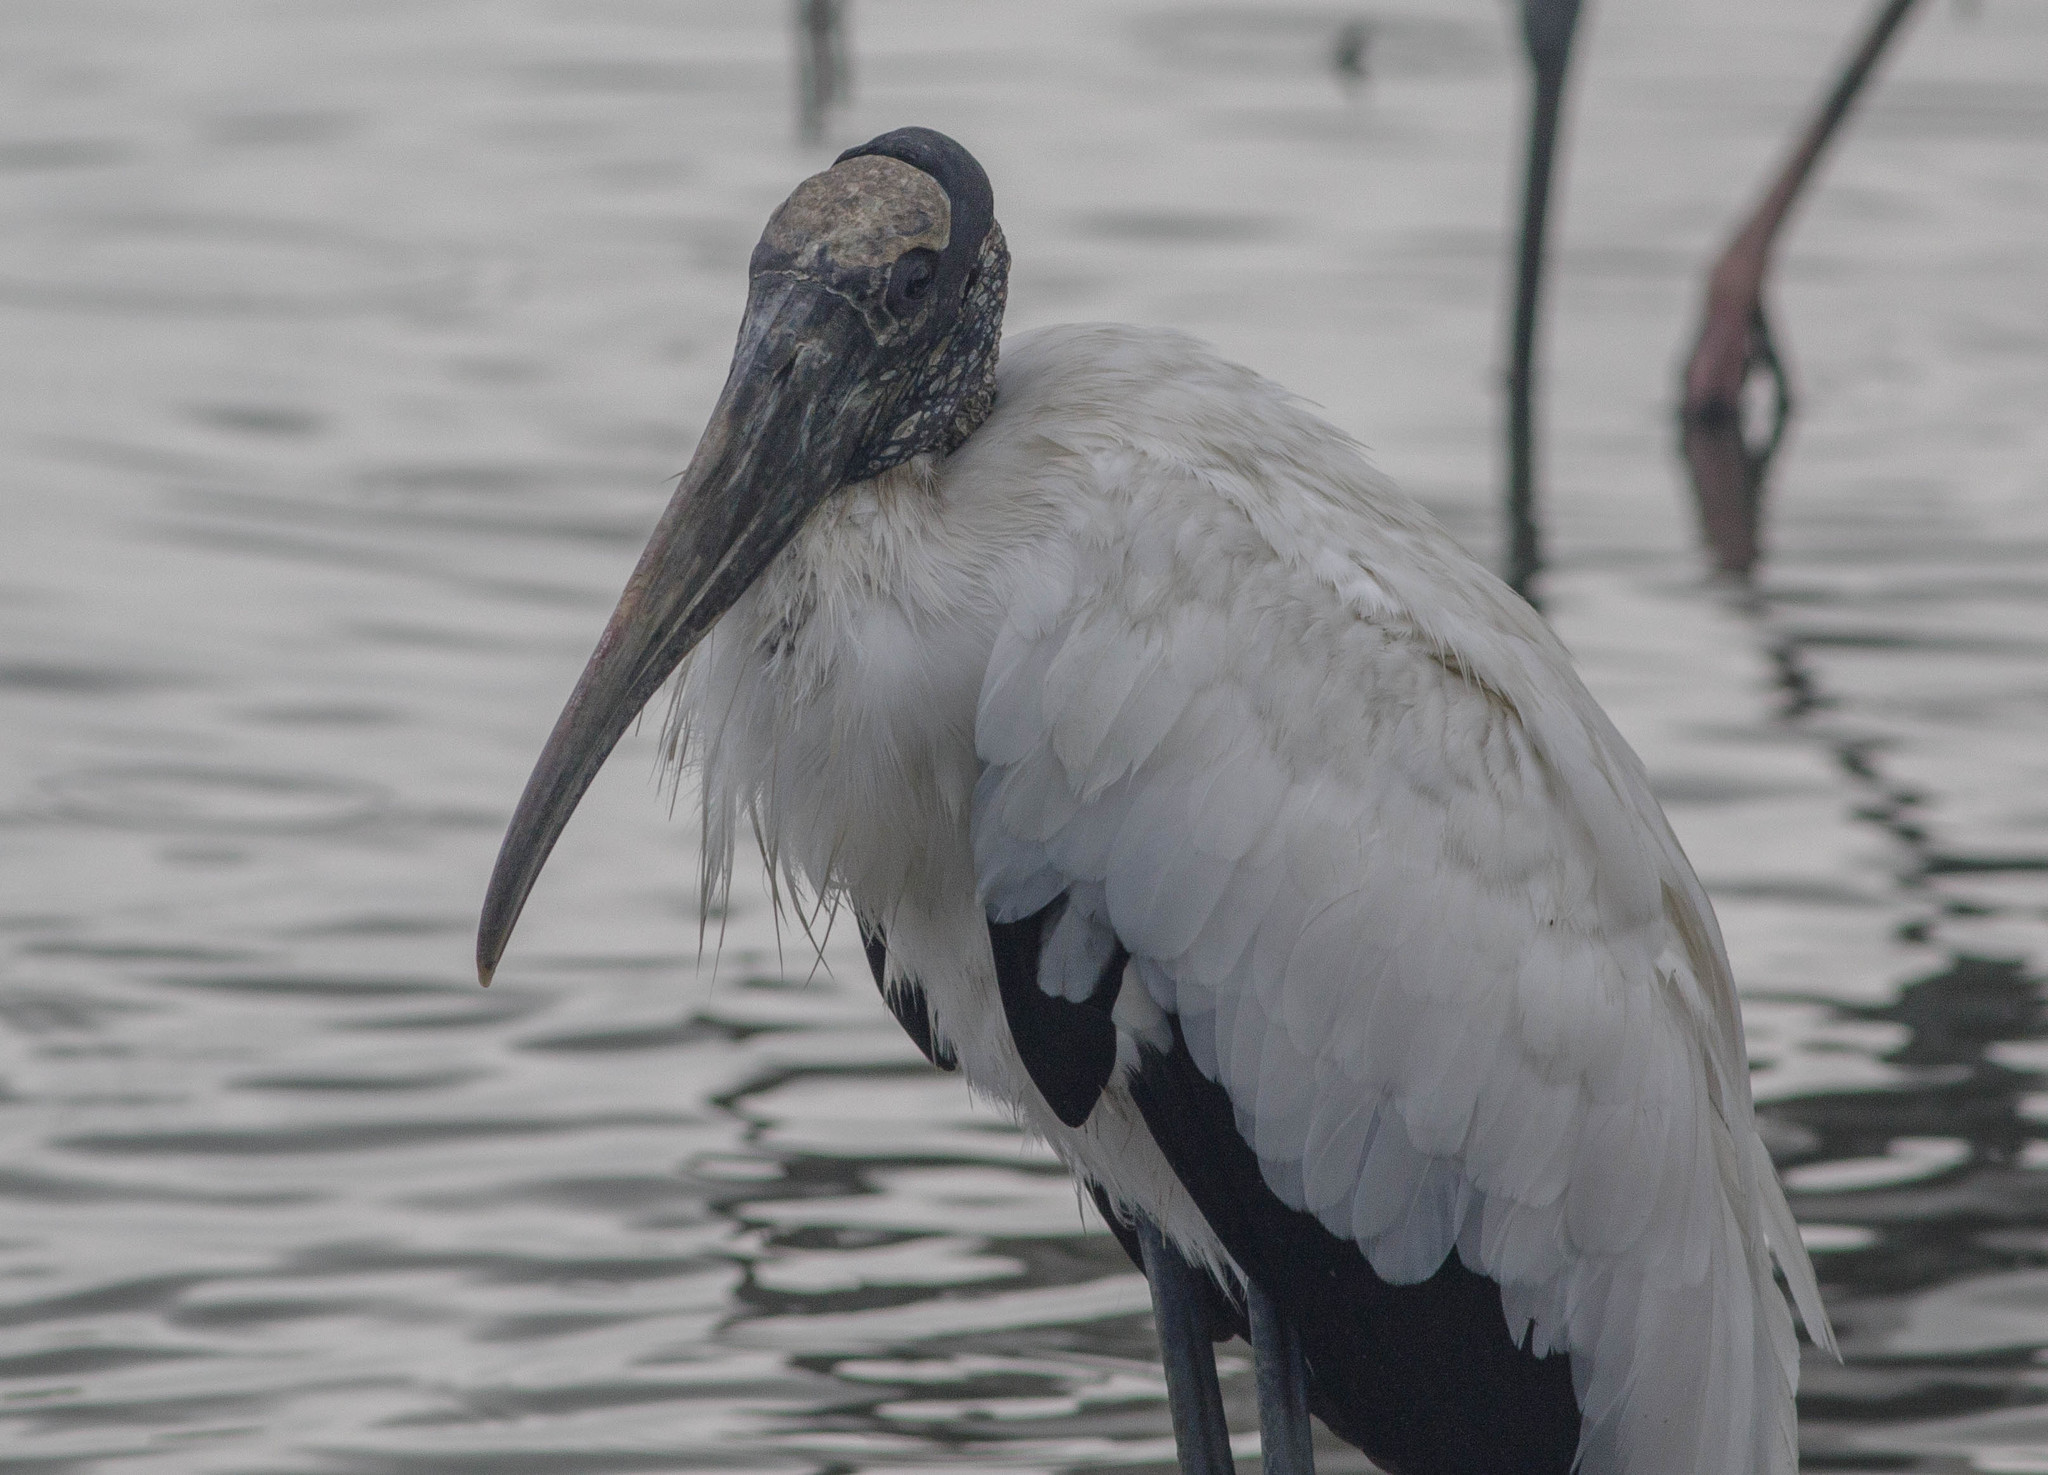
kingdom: Animalia
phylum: Chordata
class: Aves
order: Ciconiiformes
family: Ciconiidae
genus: Mycteria
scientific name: Mycteria americana
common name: Wood stork
